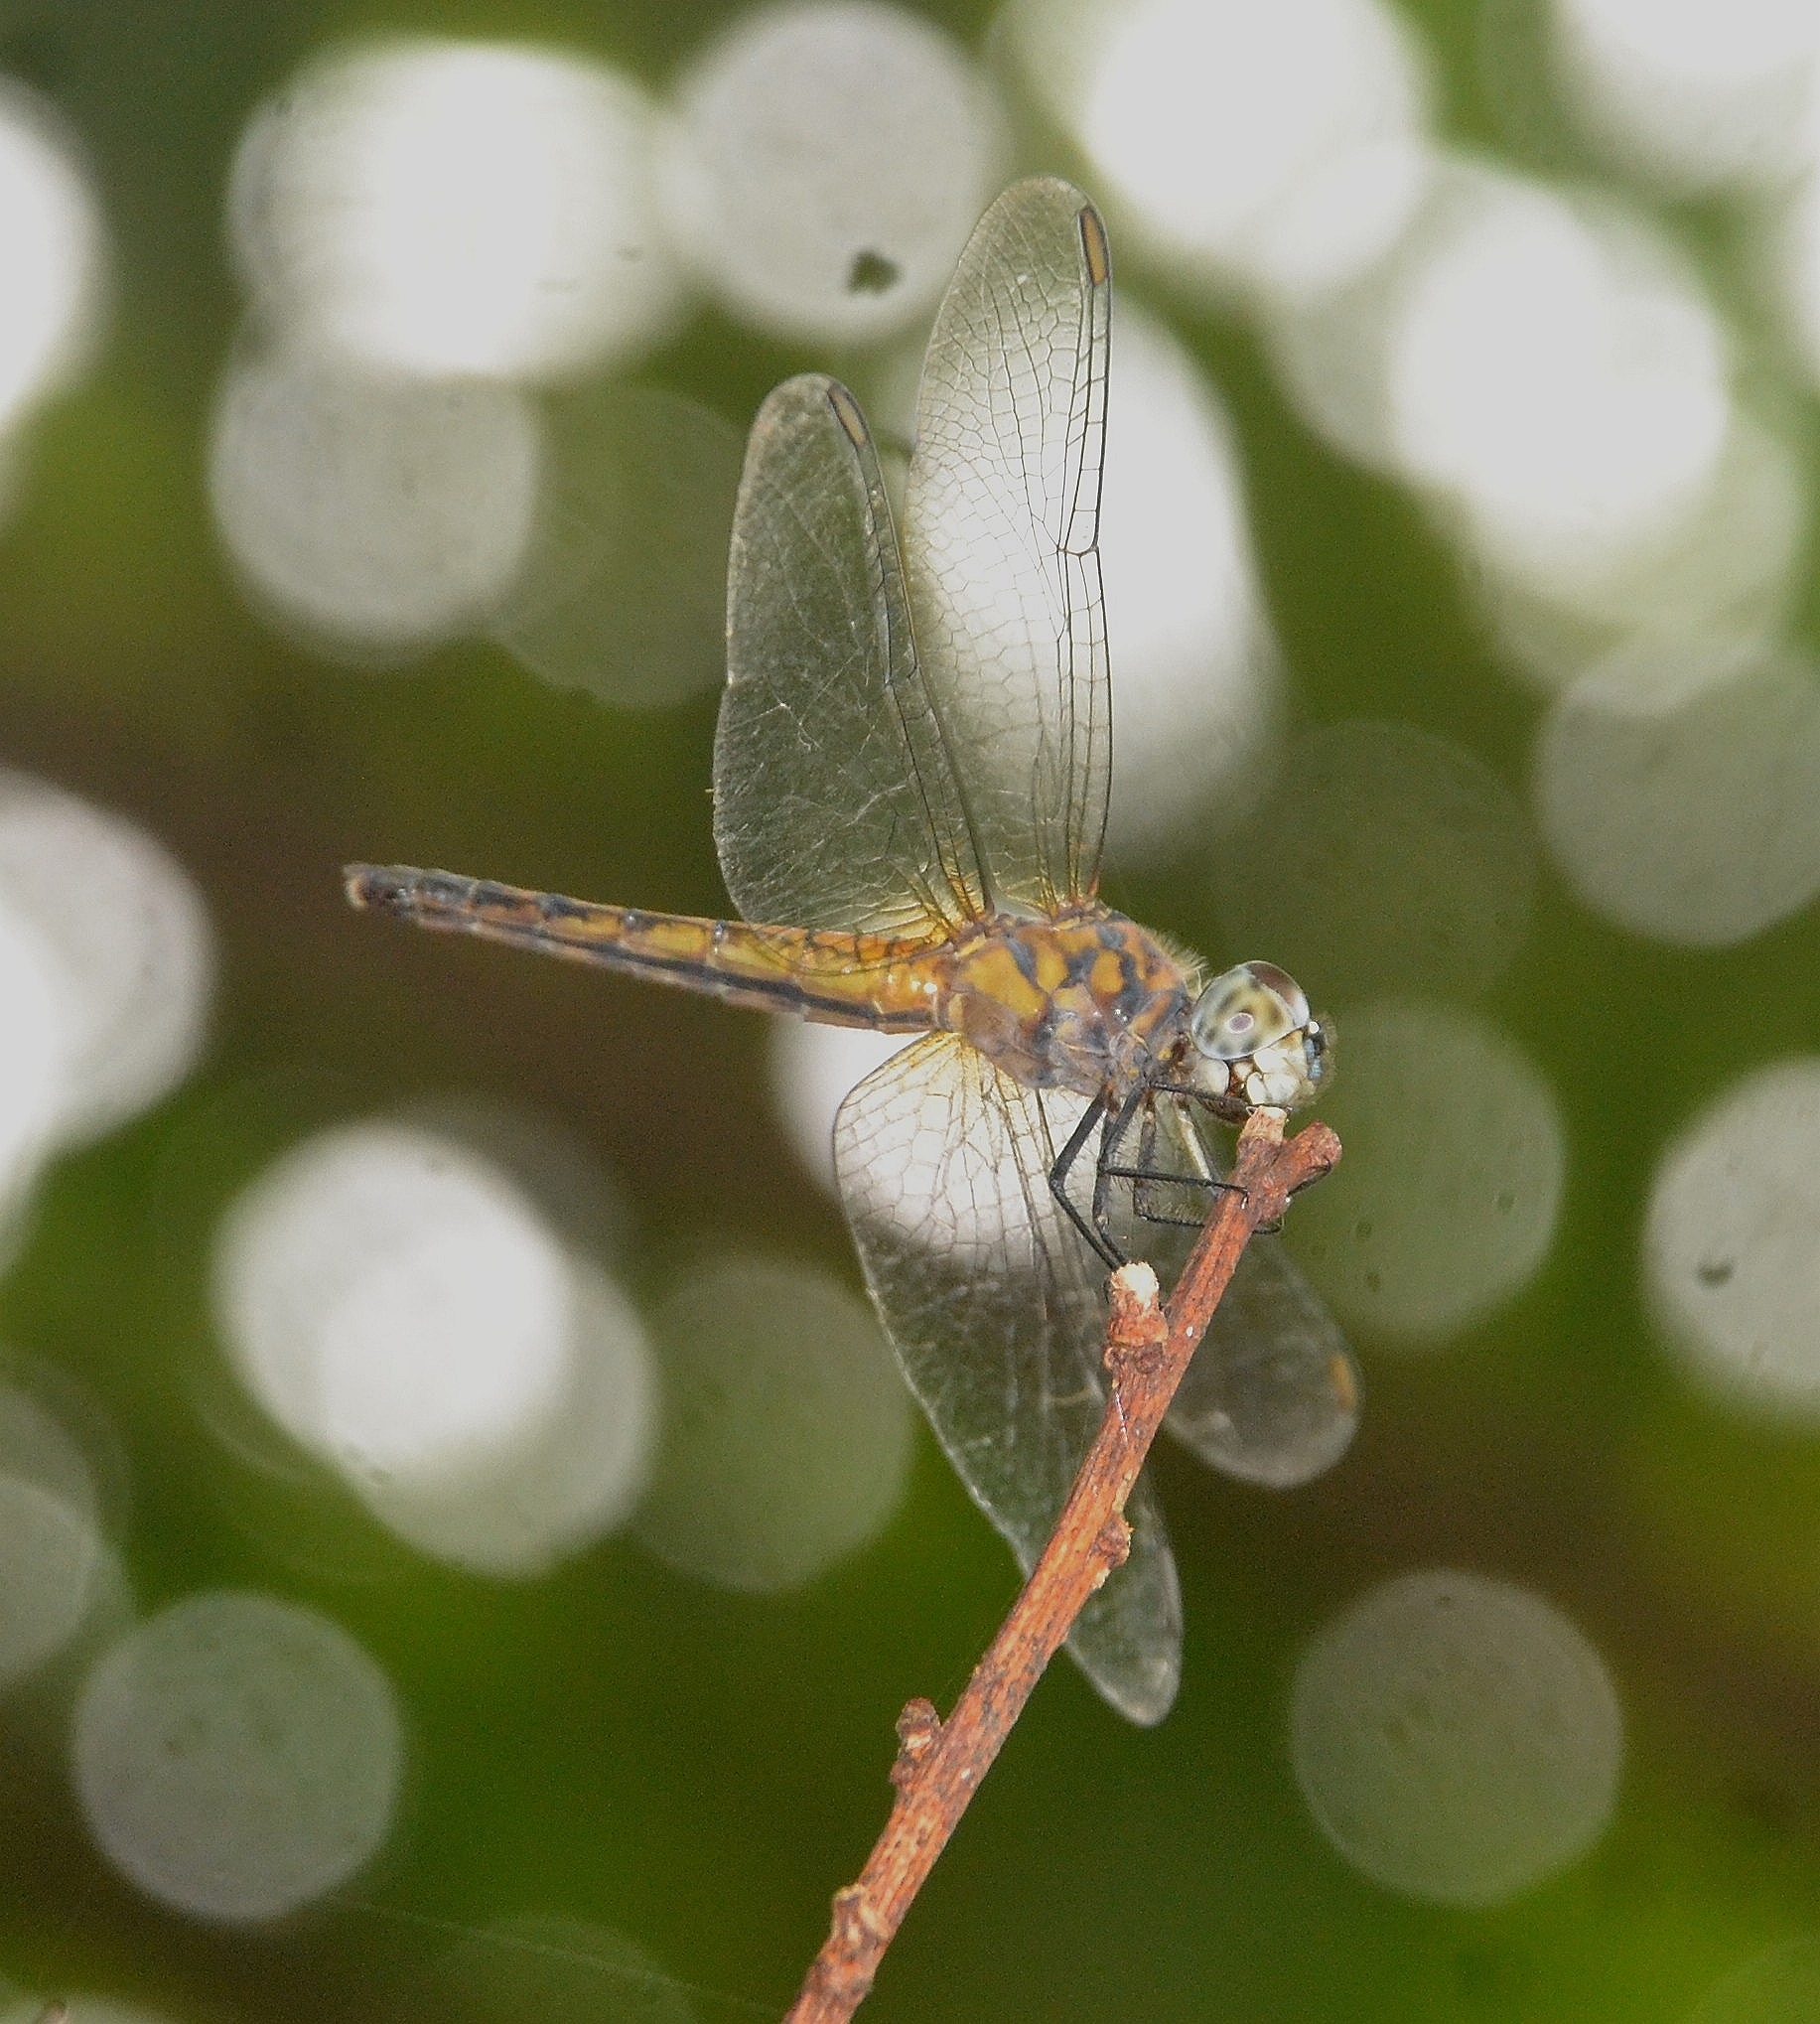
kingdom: Animalia
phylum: Arthropoda
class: Insecta
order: Odonata
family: Libellulidae
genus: Brachydiplax
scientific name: Brachydiplax chalybea
